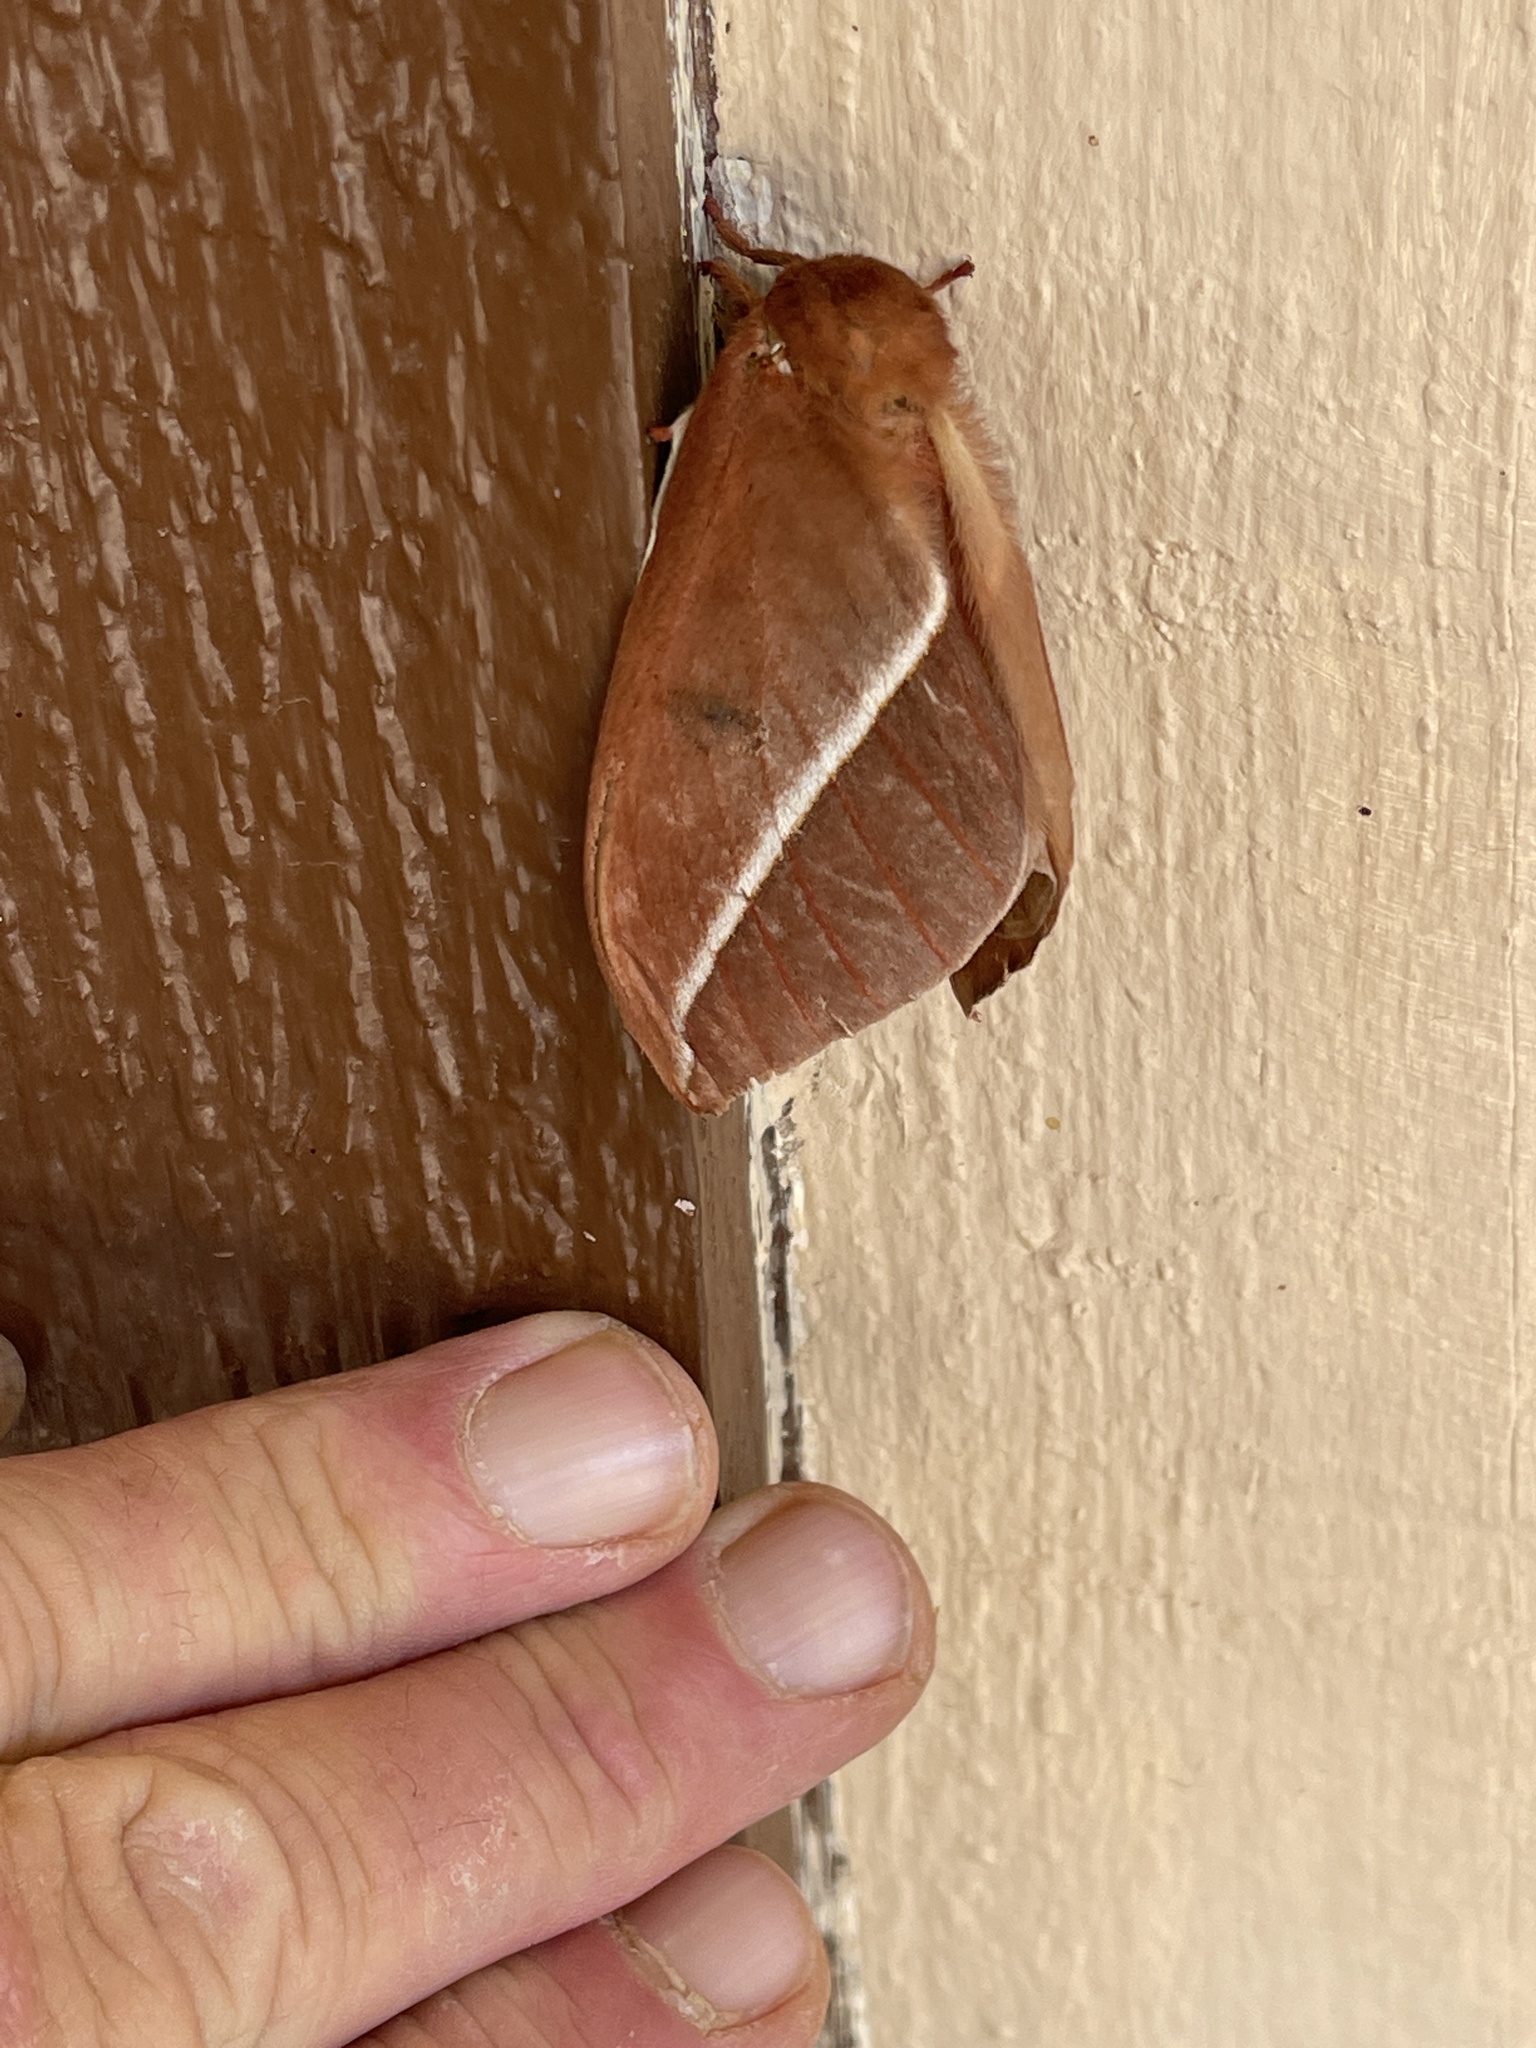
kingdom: Animalia
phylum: Arthropoda
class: Insecta
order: Lepidoptera
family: Saturniidae
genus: Automeris
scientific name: Automeris zephyria
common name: Zephyr eyed silkmoth
